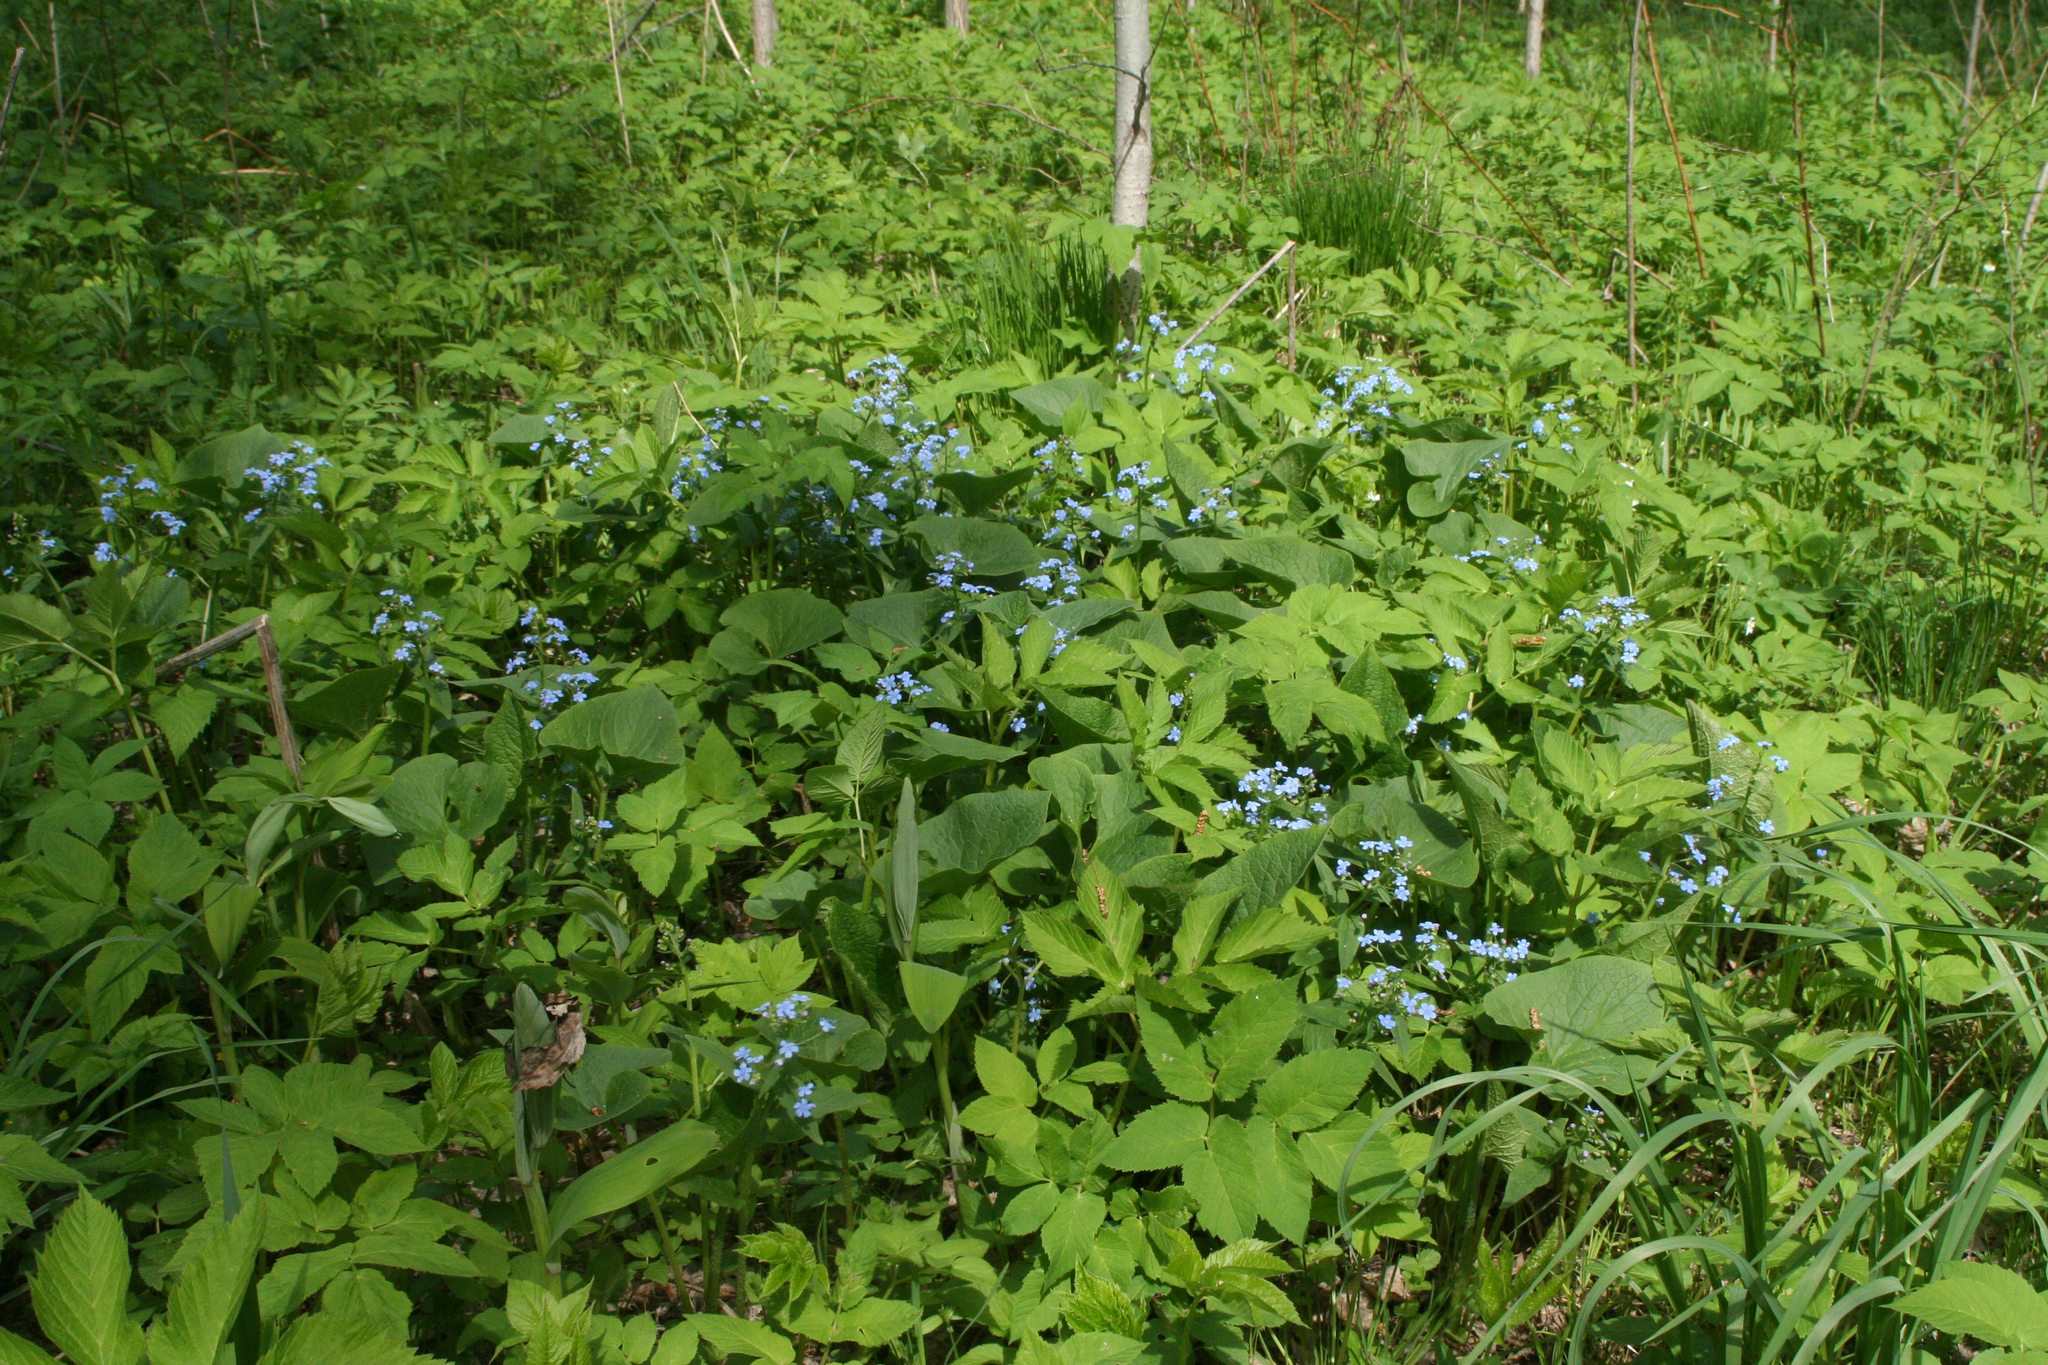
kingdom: Plantae
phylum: Tracheophyta
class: Magnoliopsida
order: Boraginales
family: Boraginaceae
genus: Brunnera
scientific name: Brunnera sibirica
